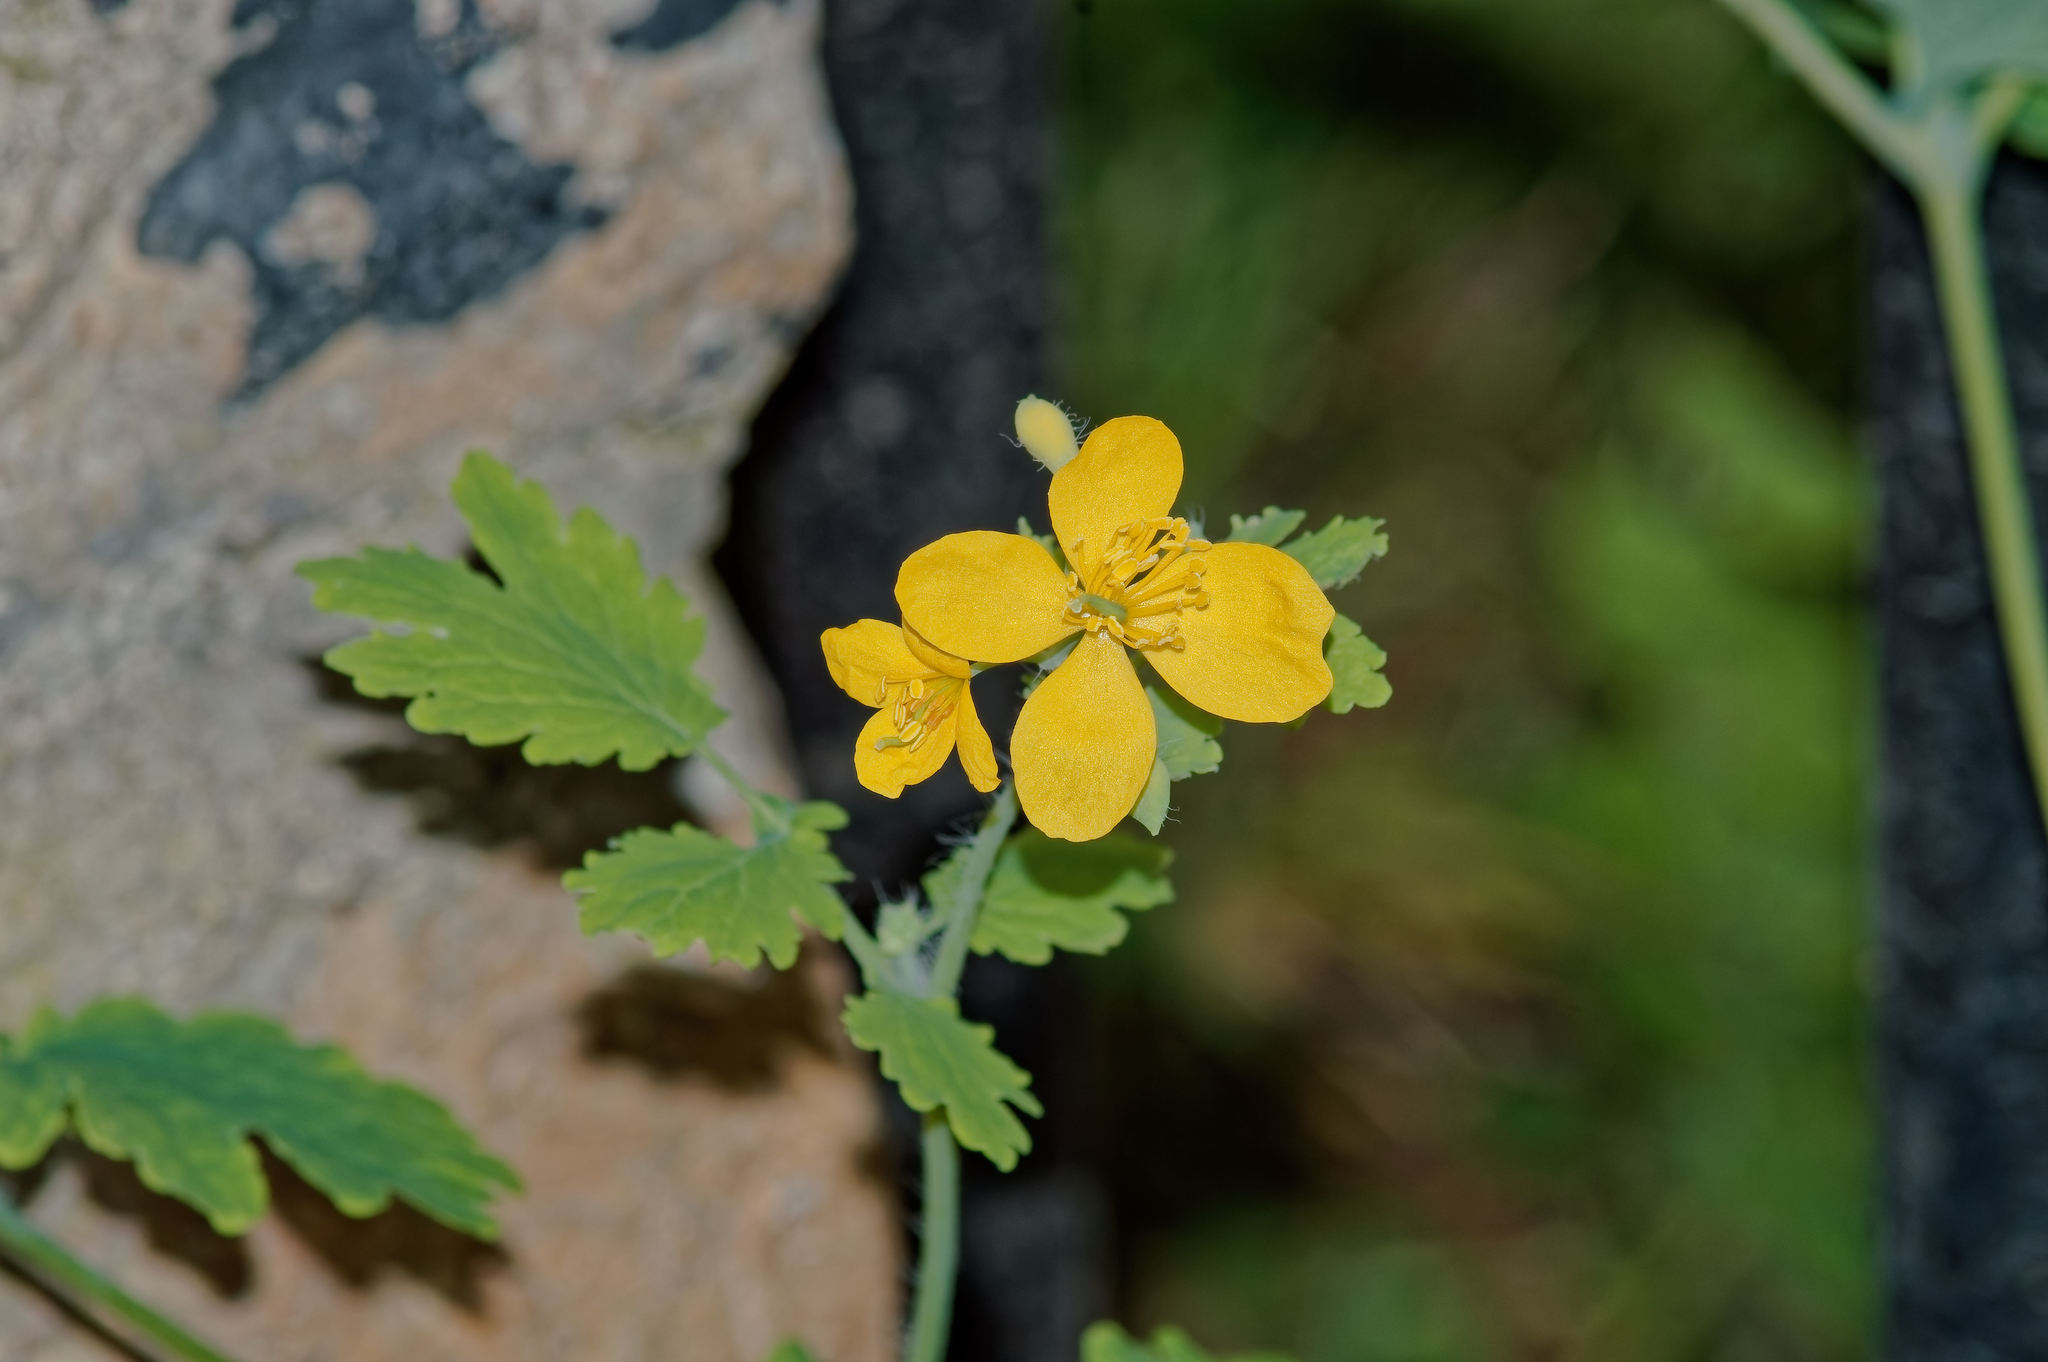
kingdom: Plantae
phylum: Tracheophyta
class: Magnoliopsida
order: Ranunculales
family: Papaveraceae
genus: Chelidonium
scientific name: Chelidonium majus
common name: Greater celandine
